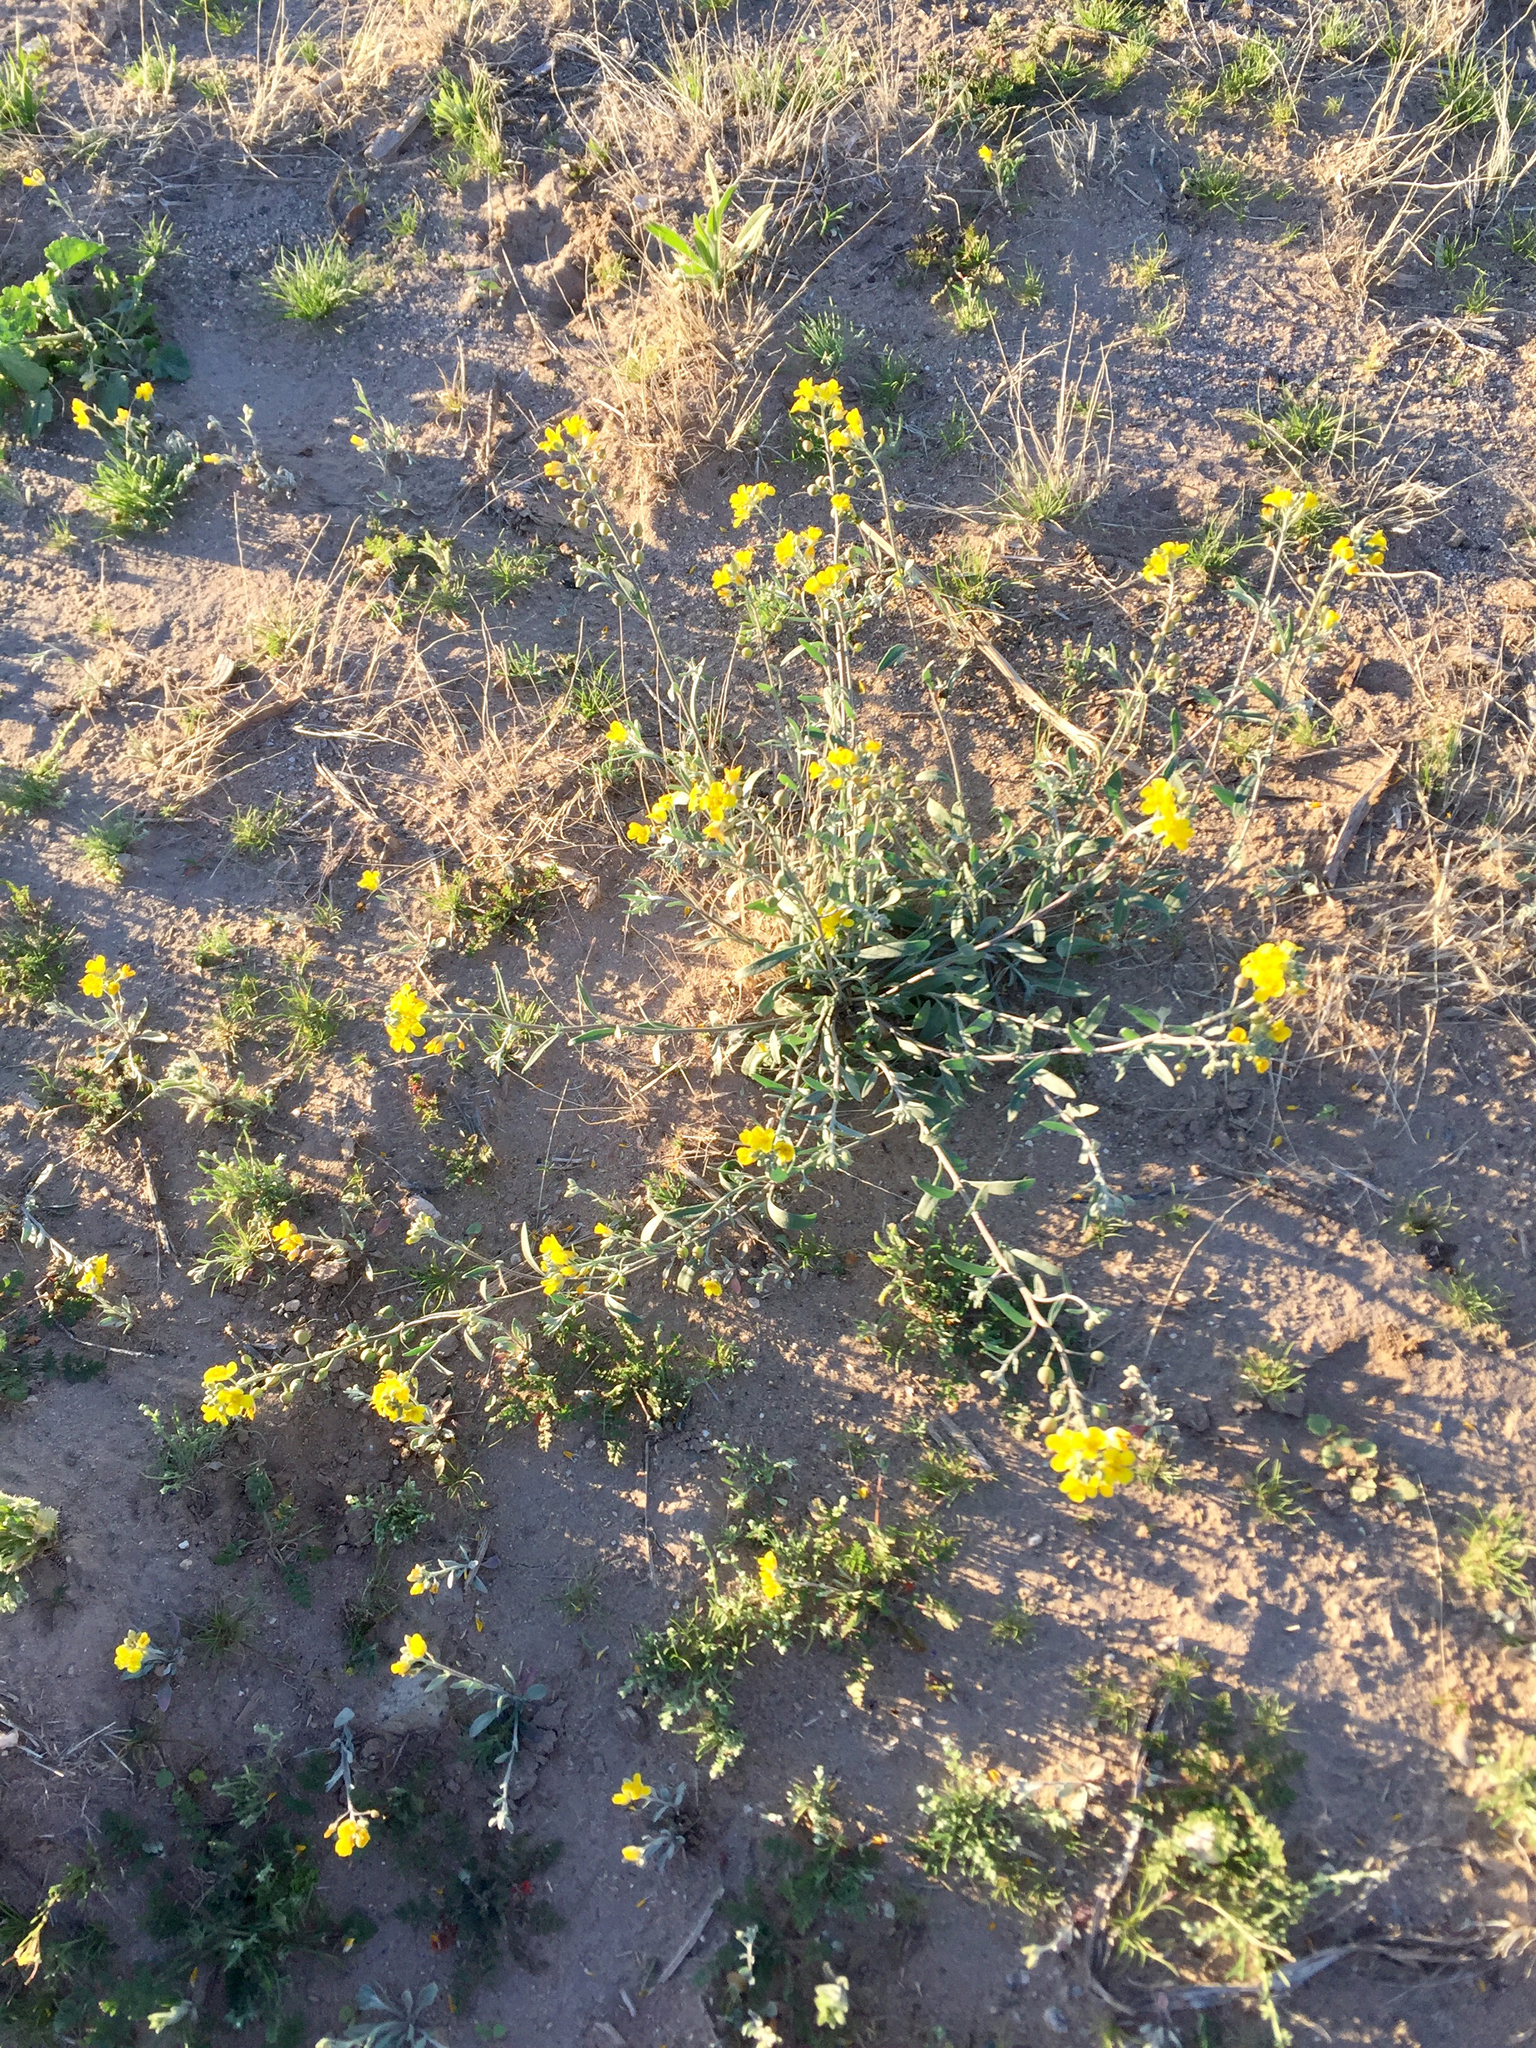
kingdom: Plantae
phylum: Tracheophyta
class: Magnoliopsida
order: Brassicales
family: Brassicaceae
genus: Physaria
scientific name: Physaria gordonii
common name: Gordon's bladderpod
